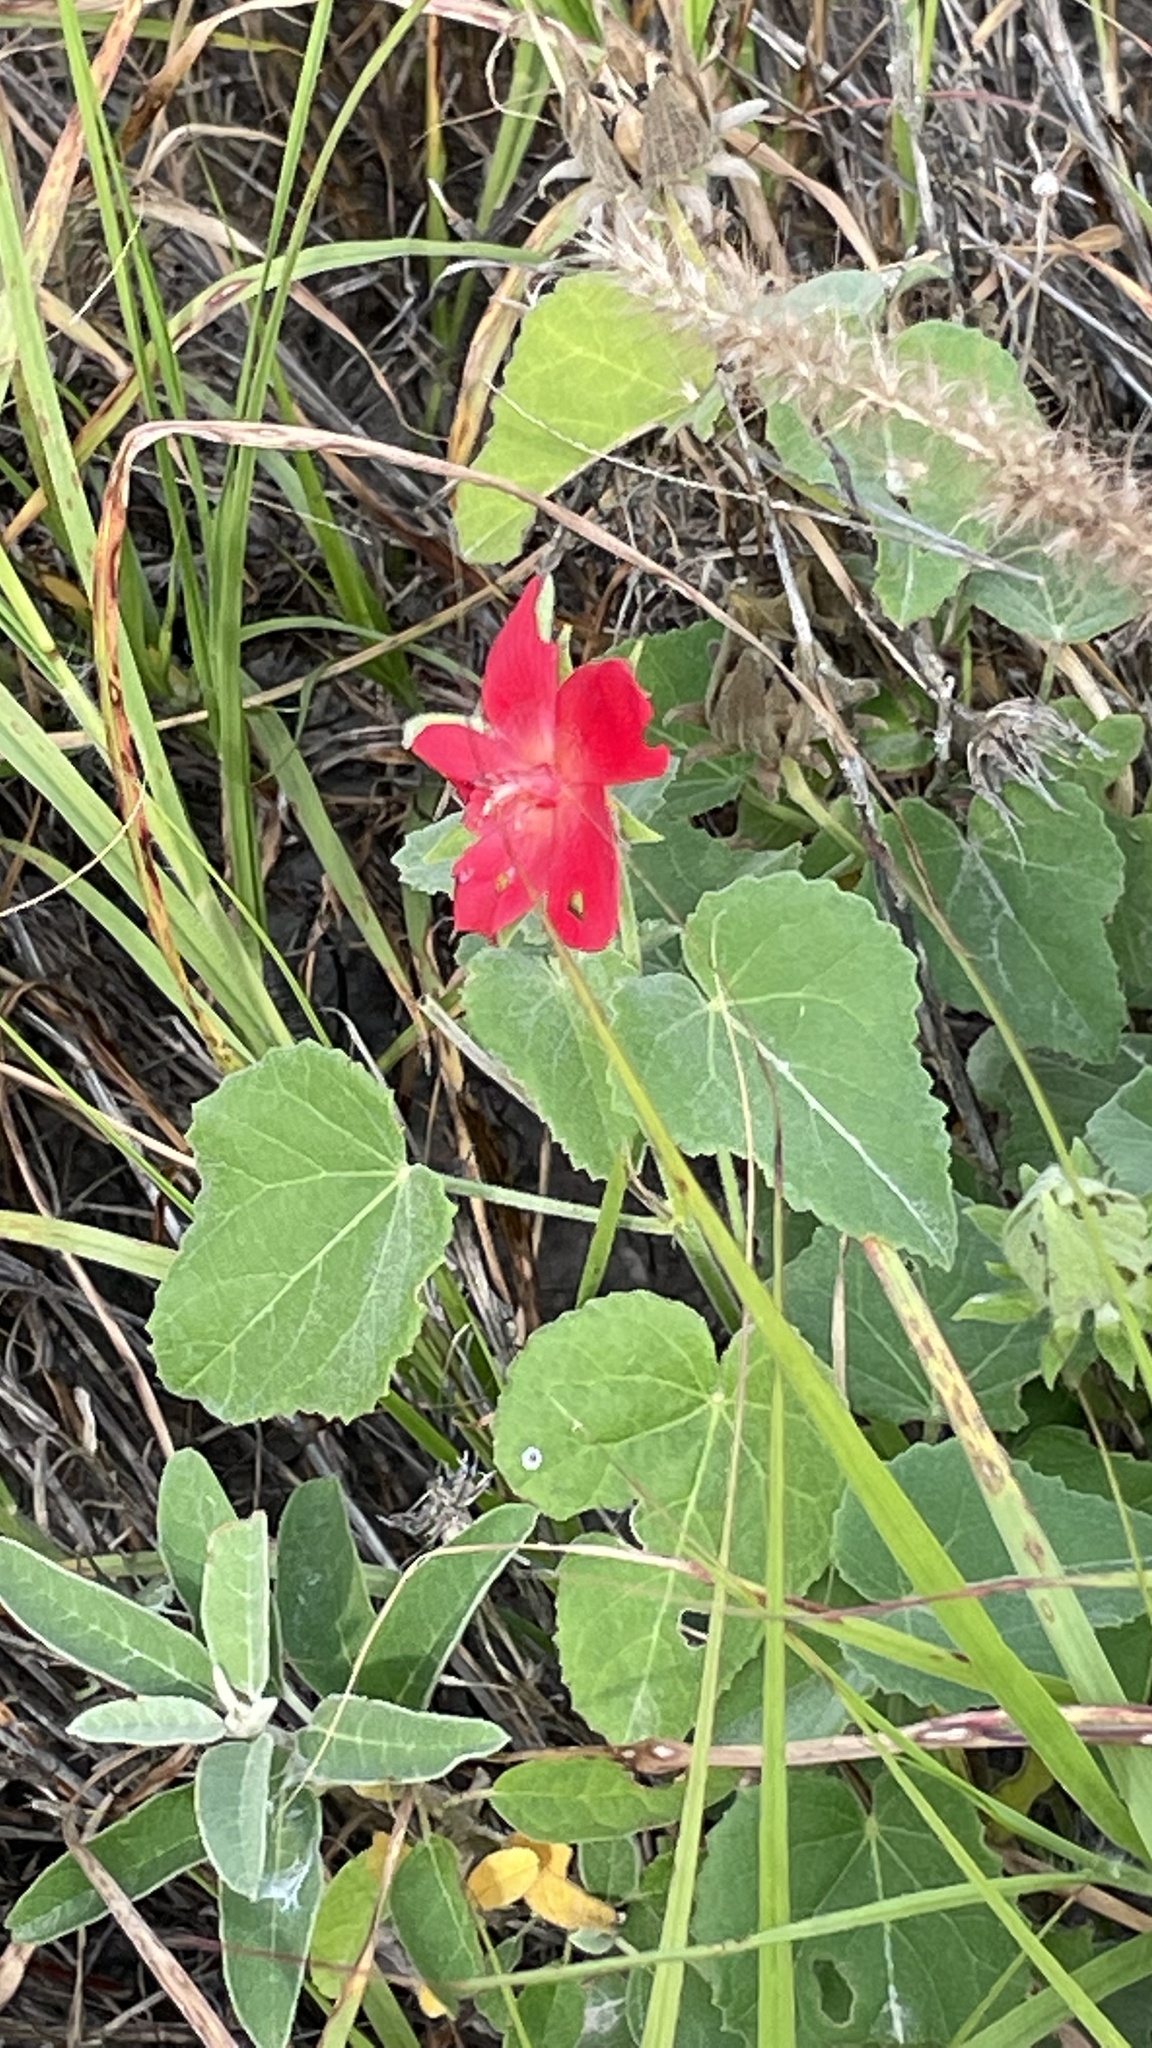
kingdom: Plantae
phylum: Tracheophyta
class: Magnoliopsida
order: Malvales
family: Malvaceae
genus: Hibiscus
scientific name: Hibiscus martianus
